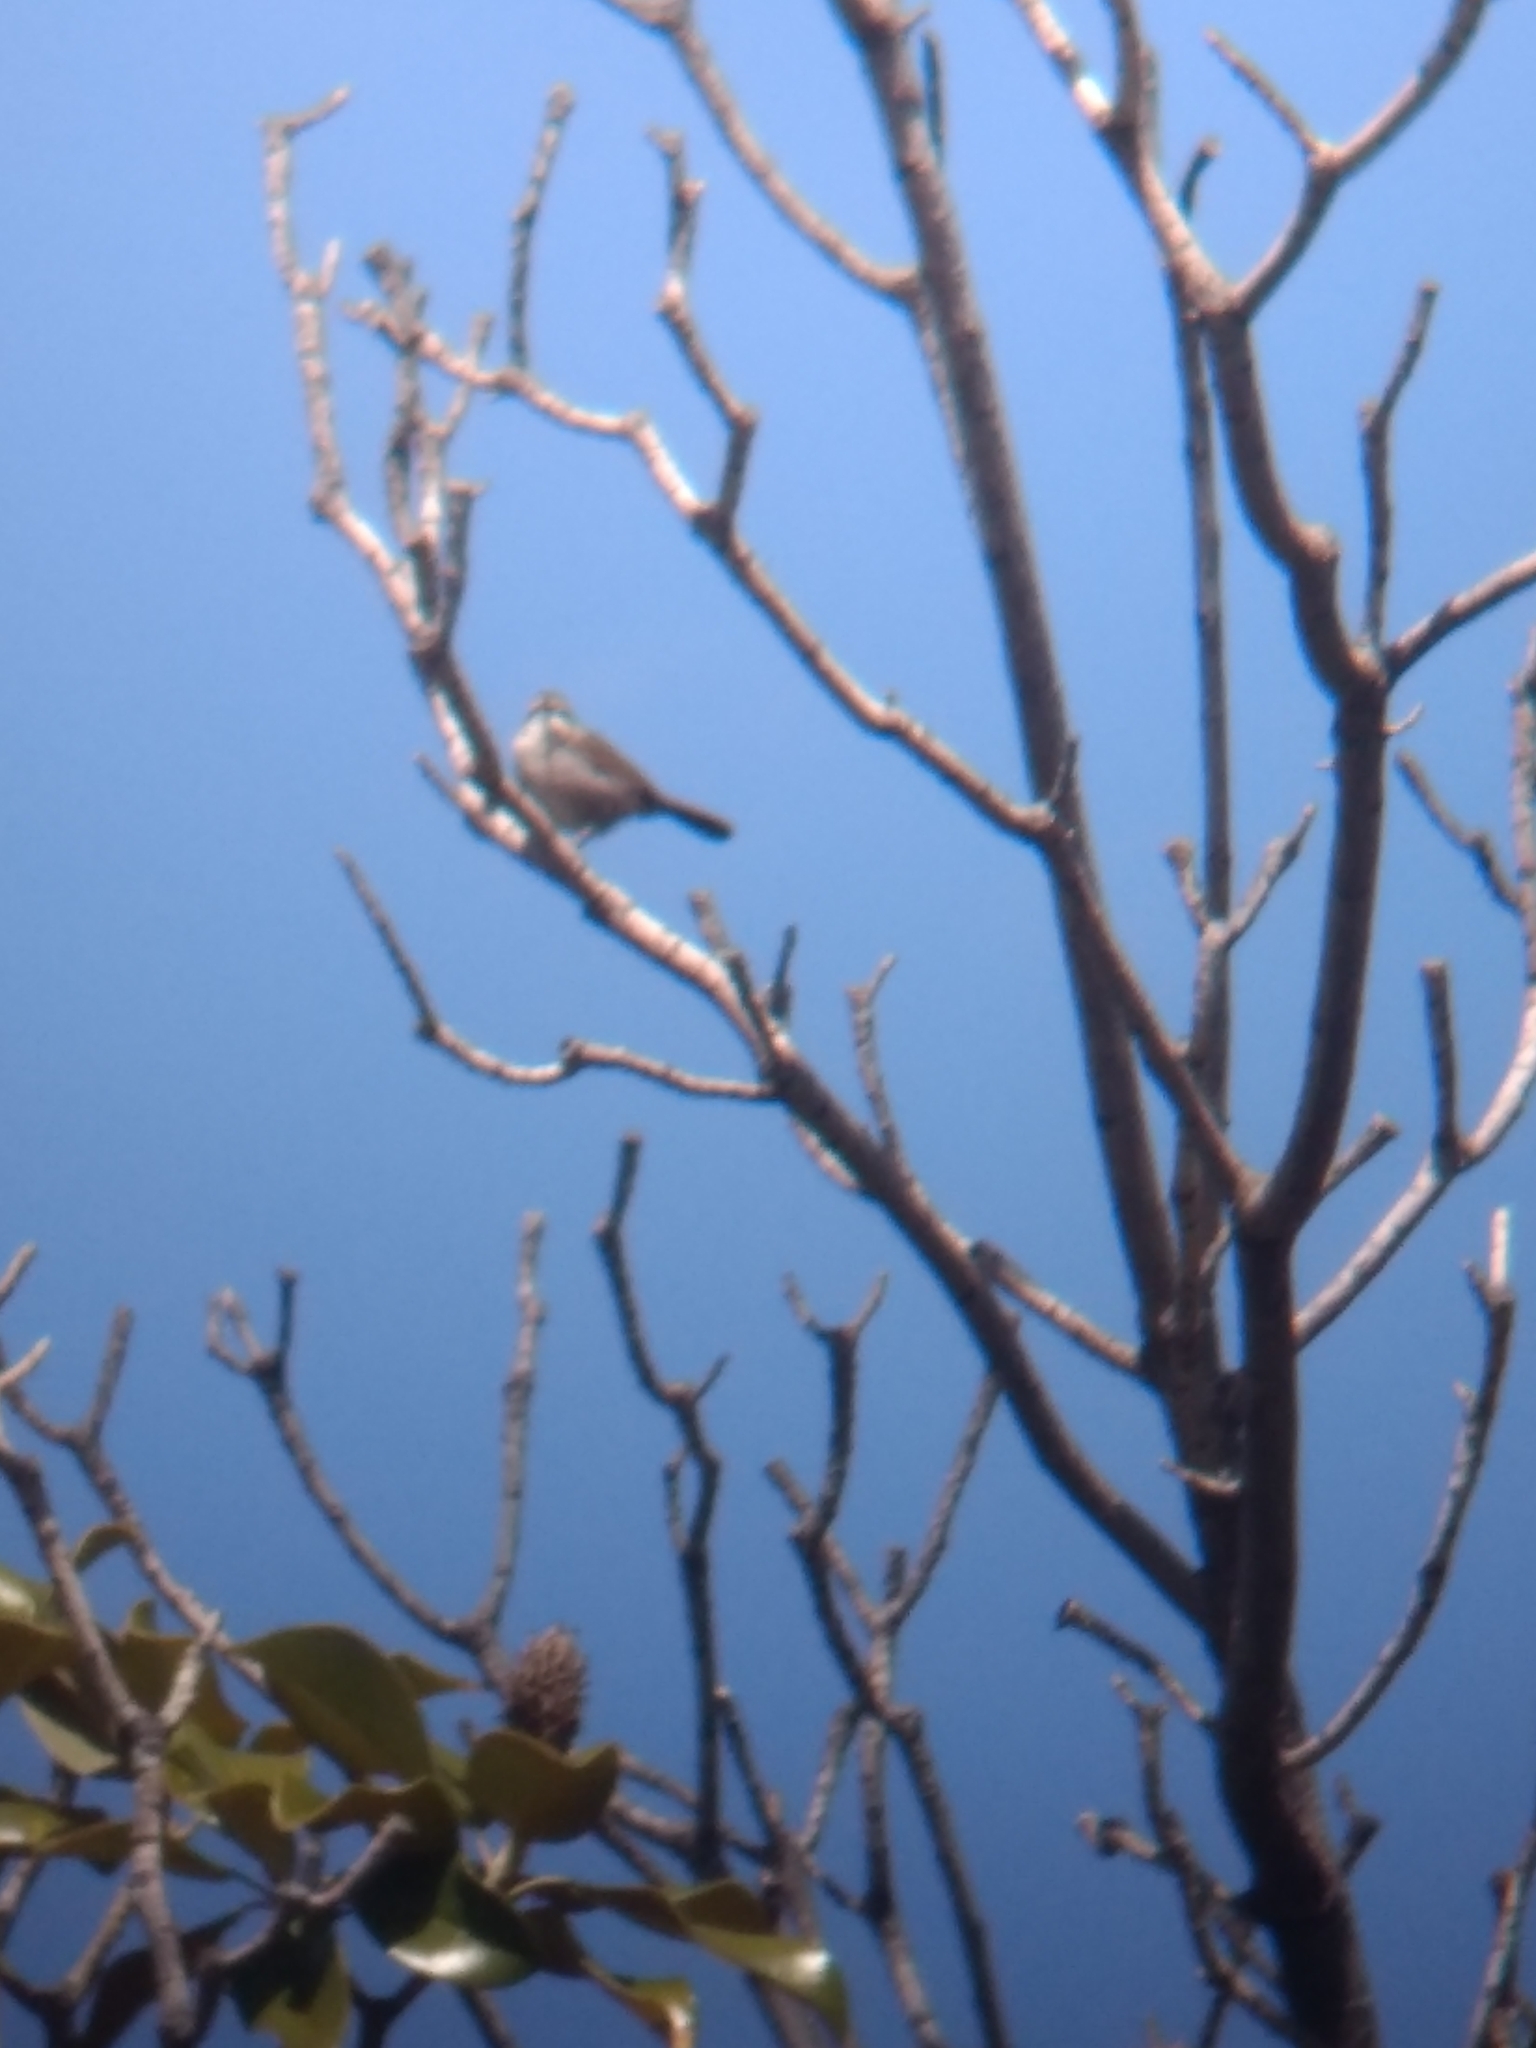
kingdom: Animalia
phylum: Chordata
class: Aves
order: Passeriformes
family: Troglodytidae
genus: Thryomanes
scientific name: Thryomanes bewickii
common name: Bewick's wren
